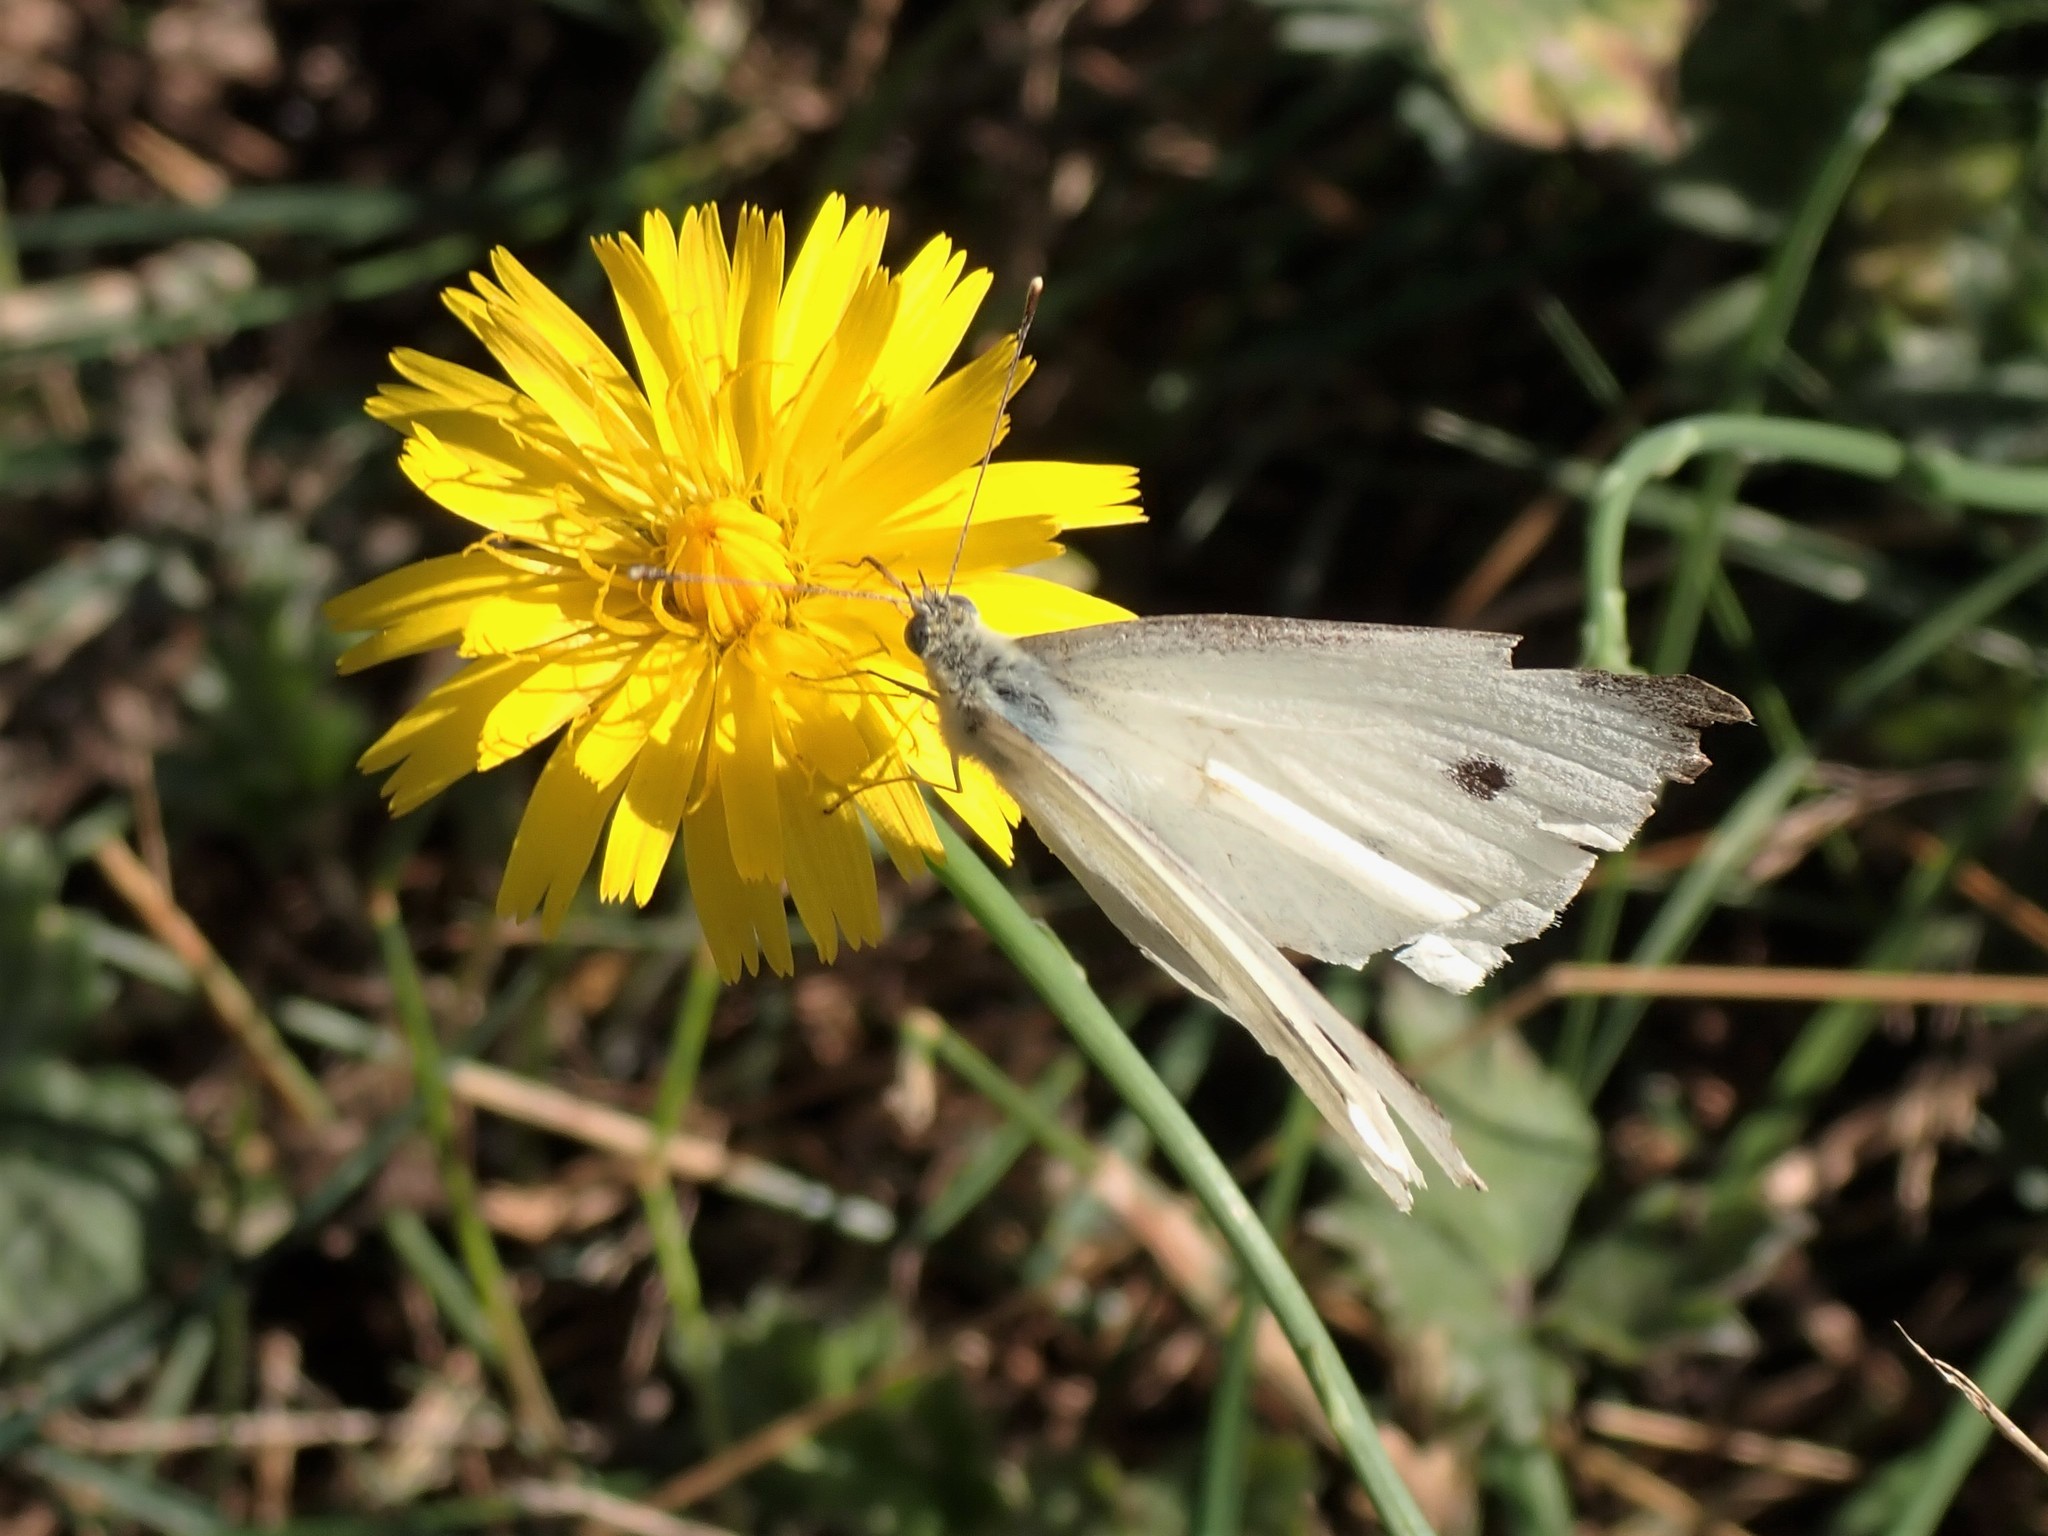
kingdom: Animalia
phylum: Arthropoda
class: Insecta
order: Lepidoptera
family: Pieridae
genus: Pieris
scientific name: Pieris rapae
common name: Small white
